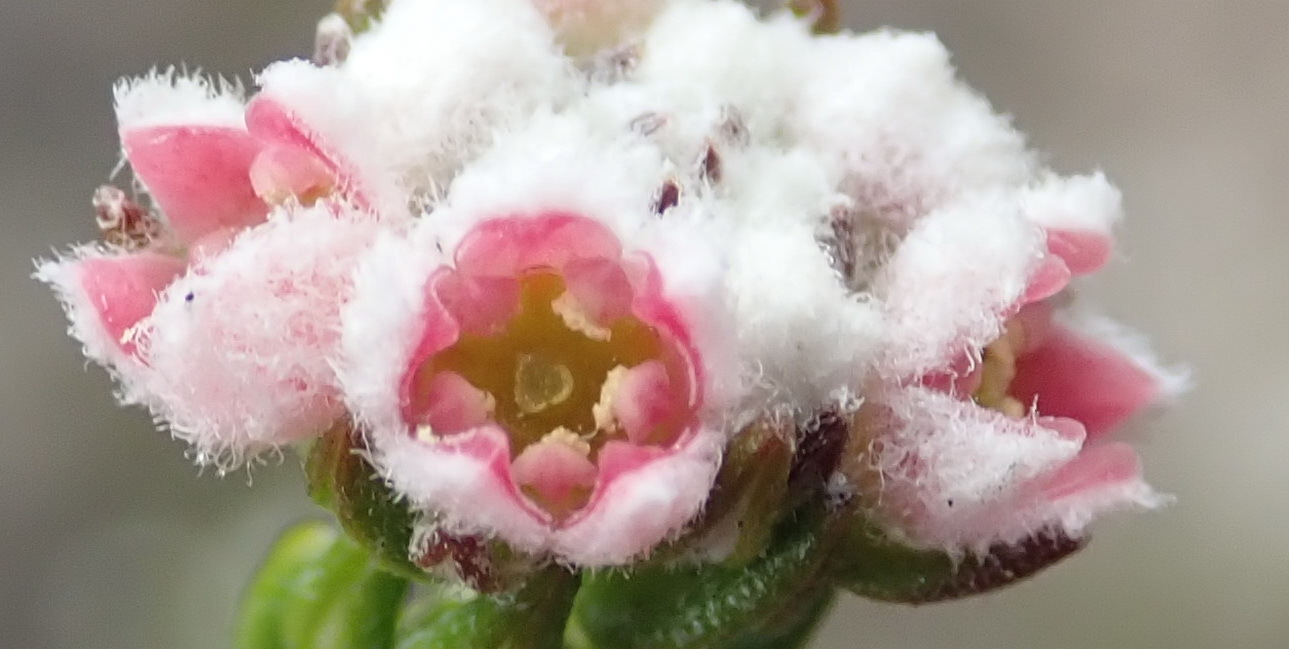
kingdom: Plantae
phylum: Tracheophyta
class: Magnoliopsida
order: Rosales
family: Rhamnaceae
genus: Phylica
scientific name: Phylica purpurea
